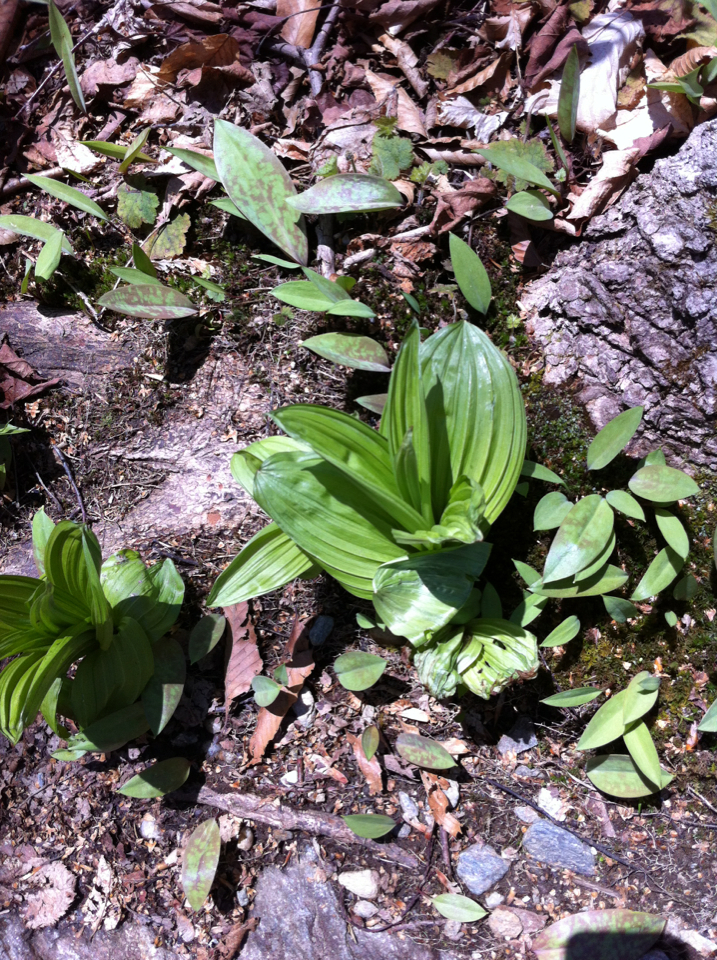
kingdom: Plantae
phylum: Tracheophyta
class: Liliopsida
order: Liliales
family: Melanthiaceae
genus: Veratrum
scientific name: Veratrum viride
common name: American false hellebore
